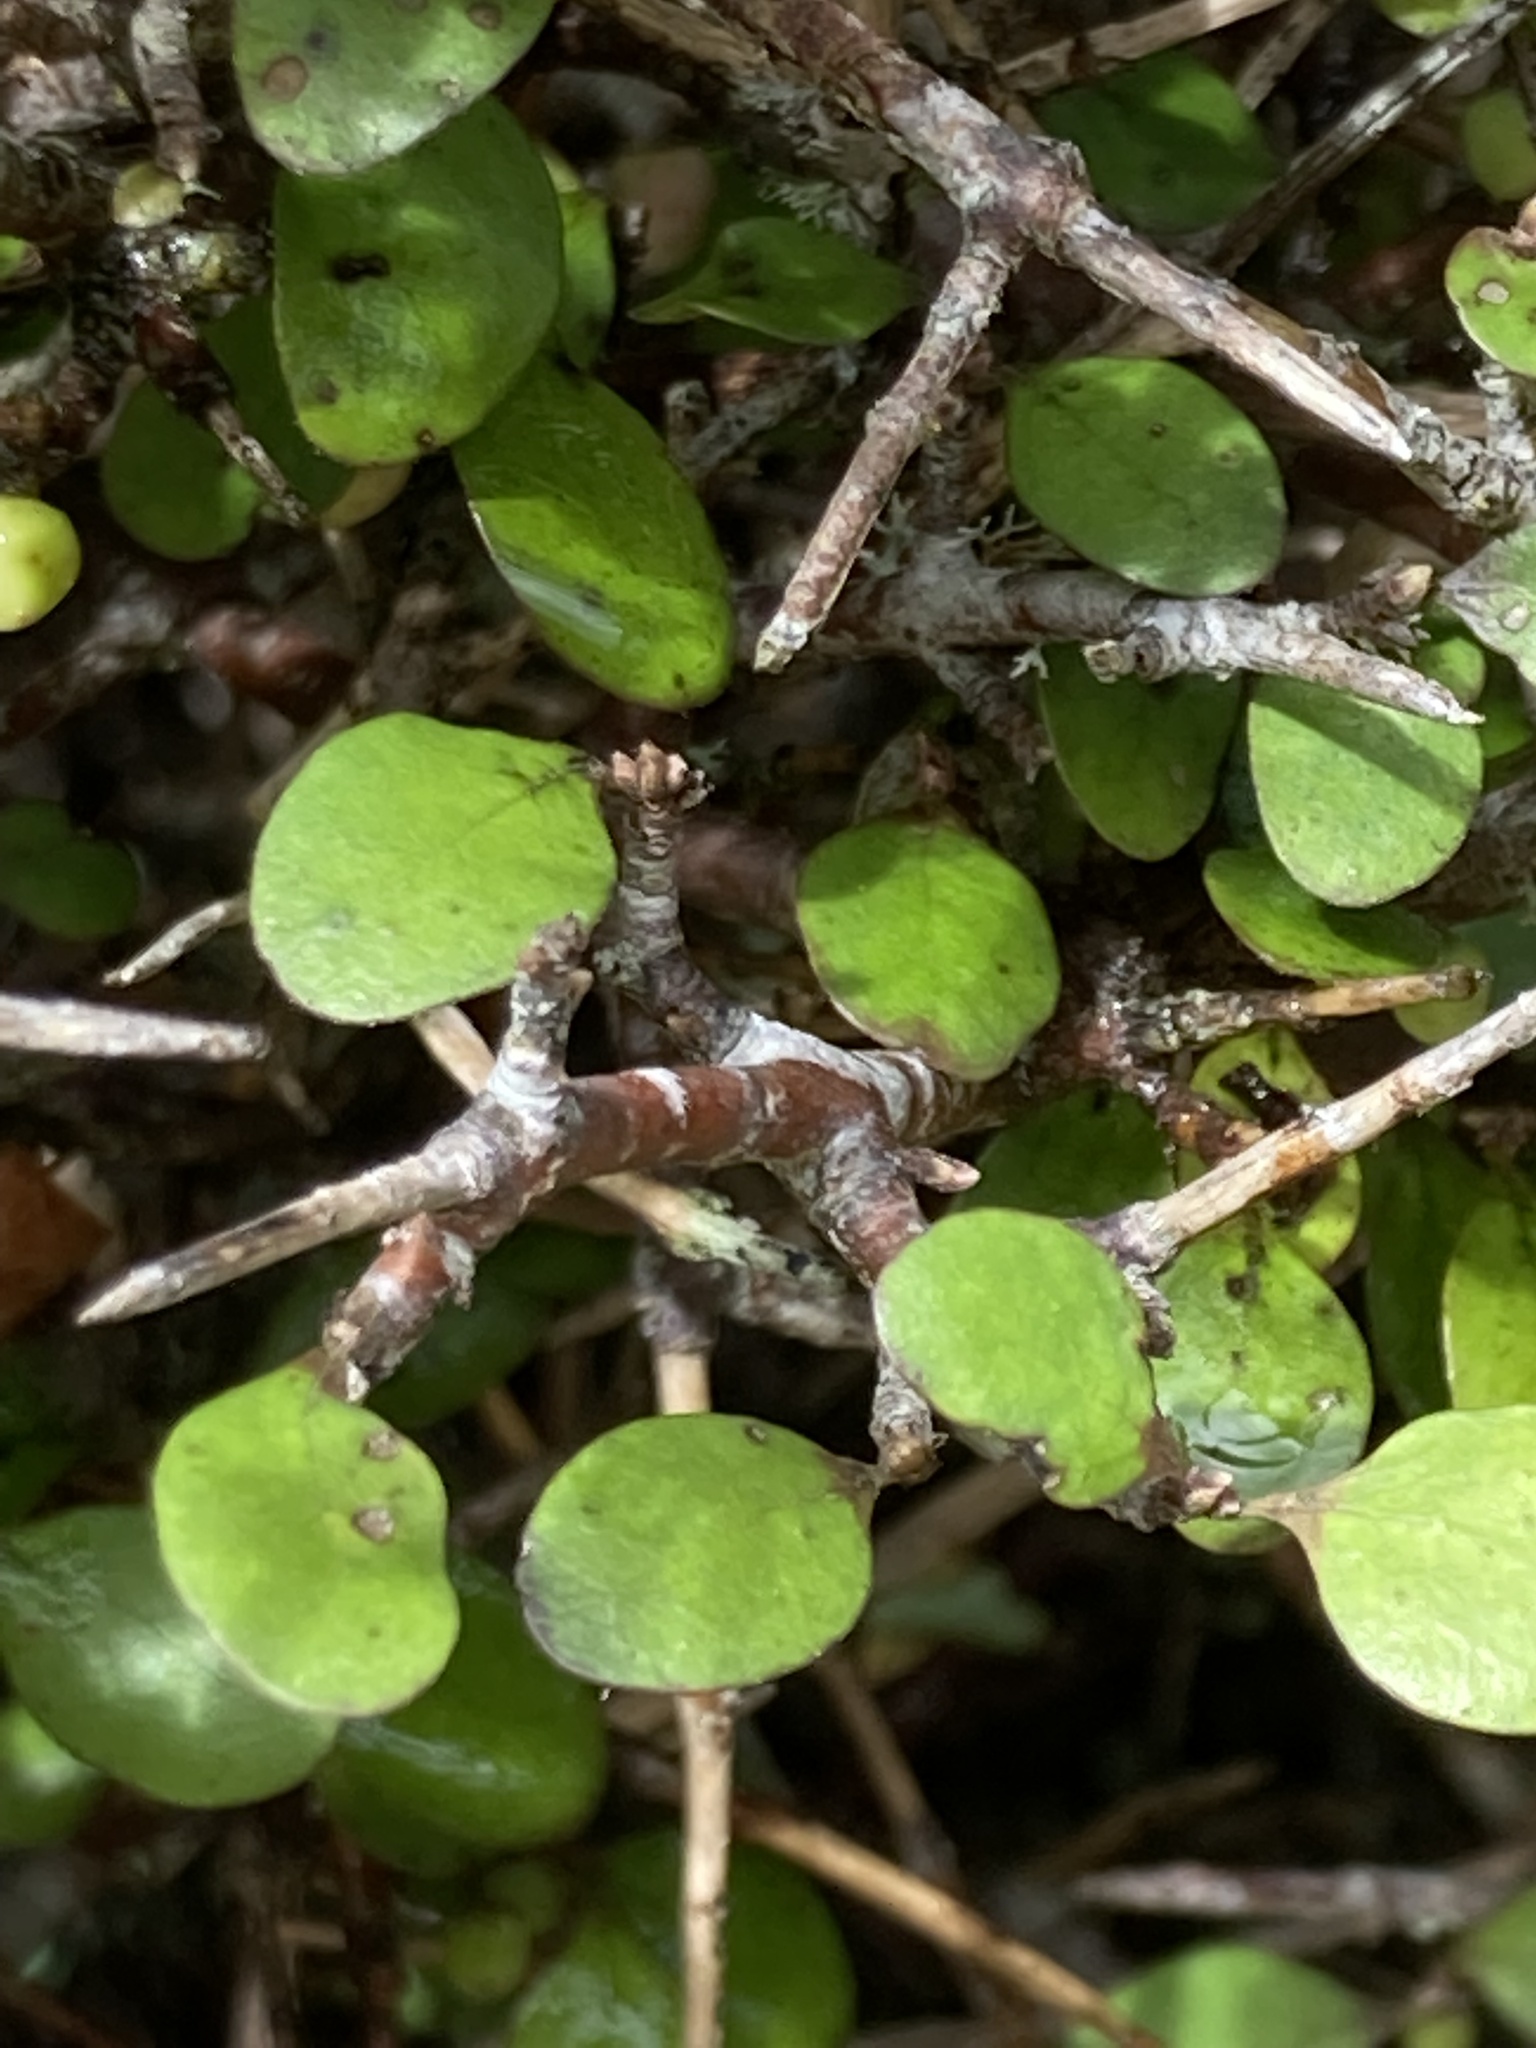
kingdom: Plantae
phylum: Tracheophyta
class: Magnoliopsida
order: Gentianales
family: Rubiaceae
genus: Coprosma
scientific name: Coprosma crassifolia
